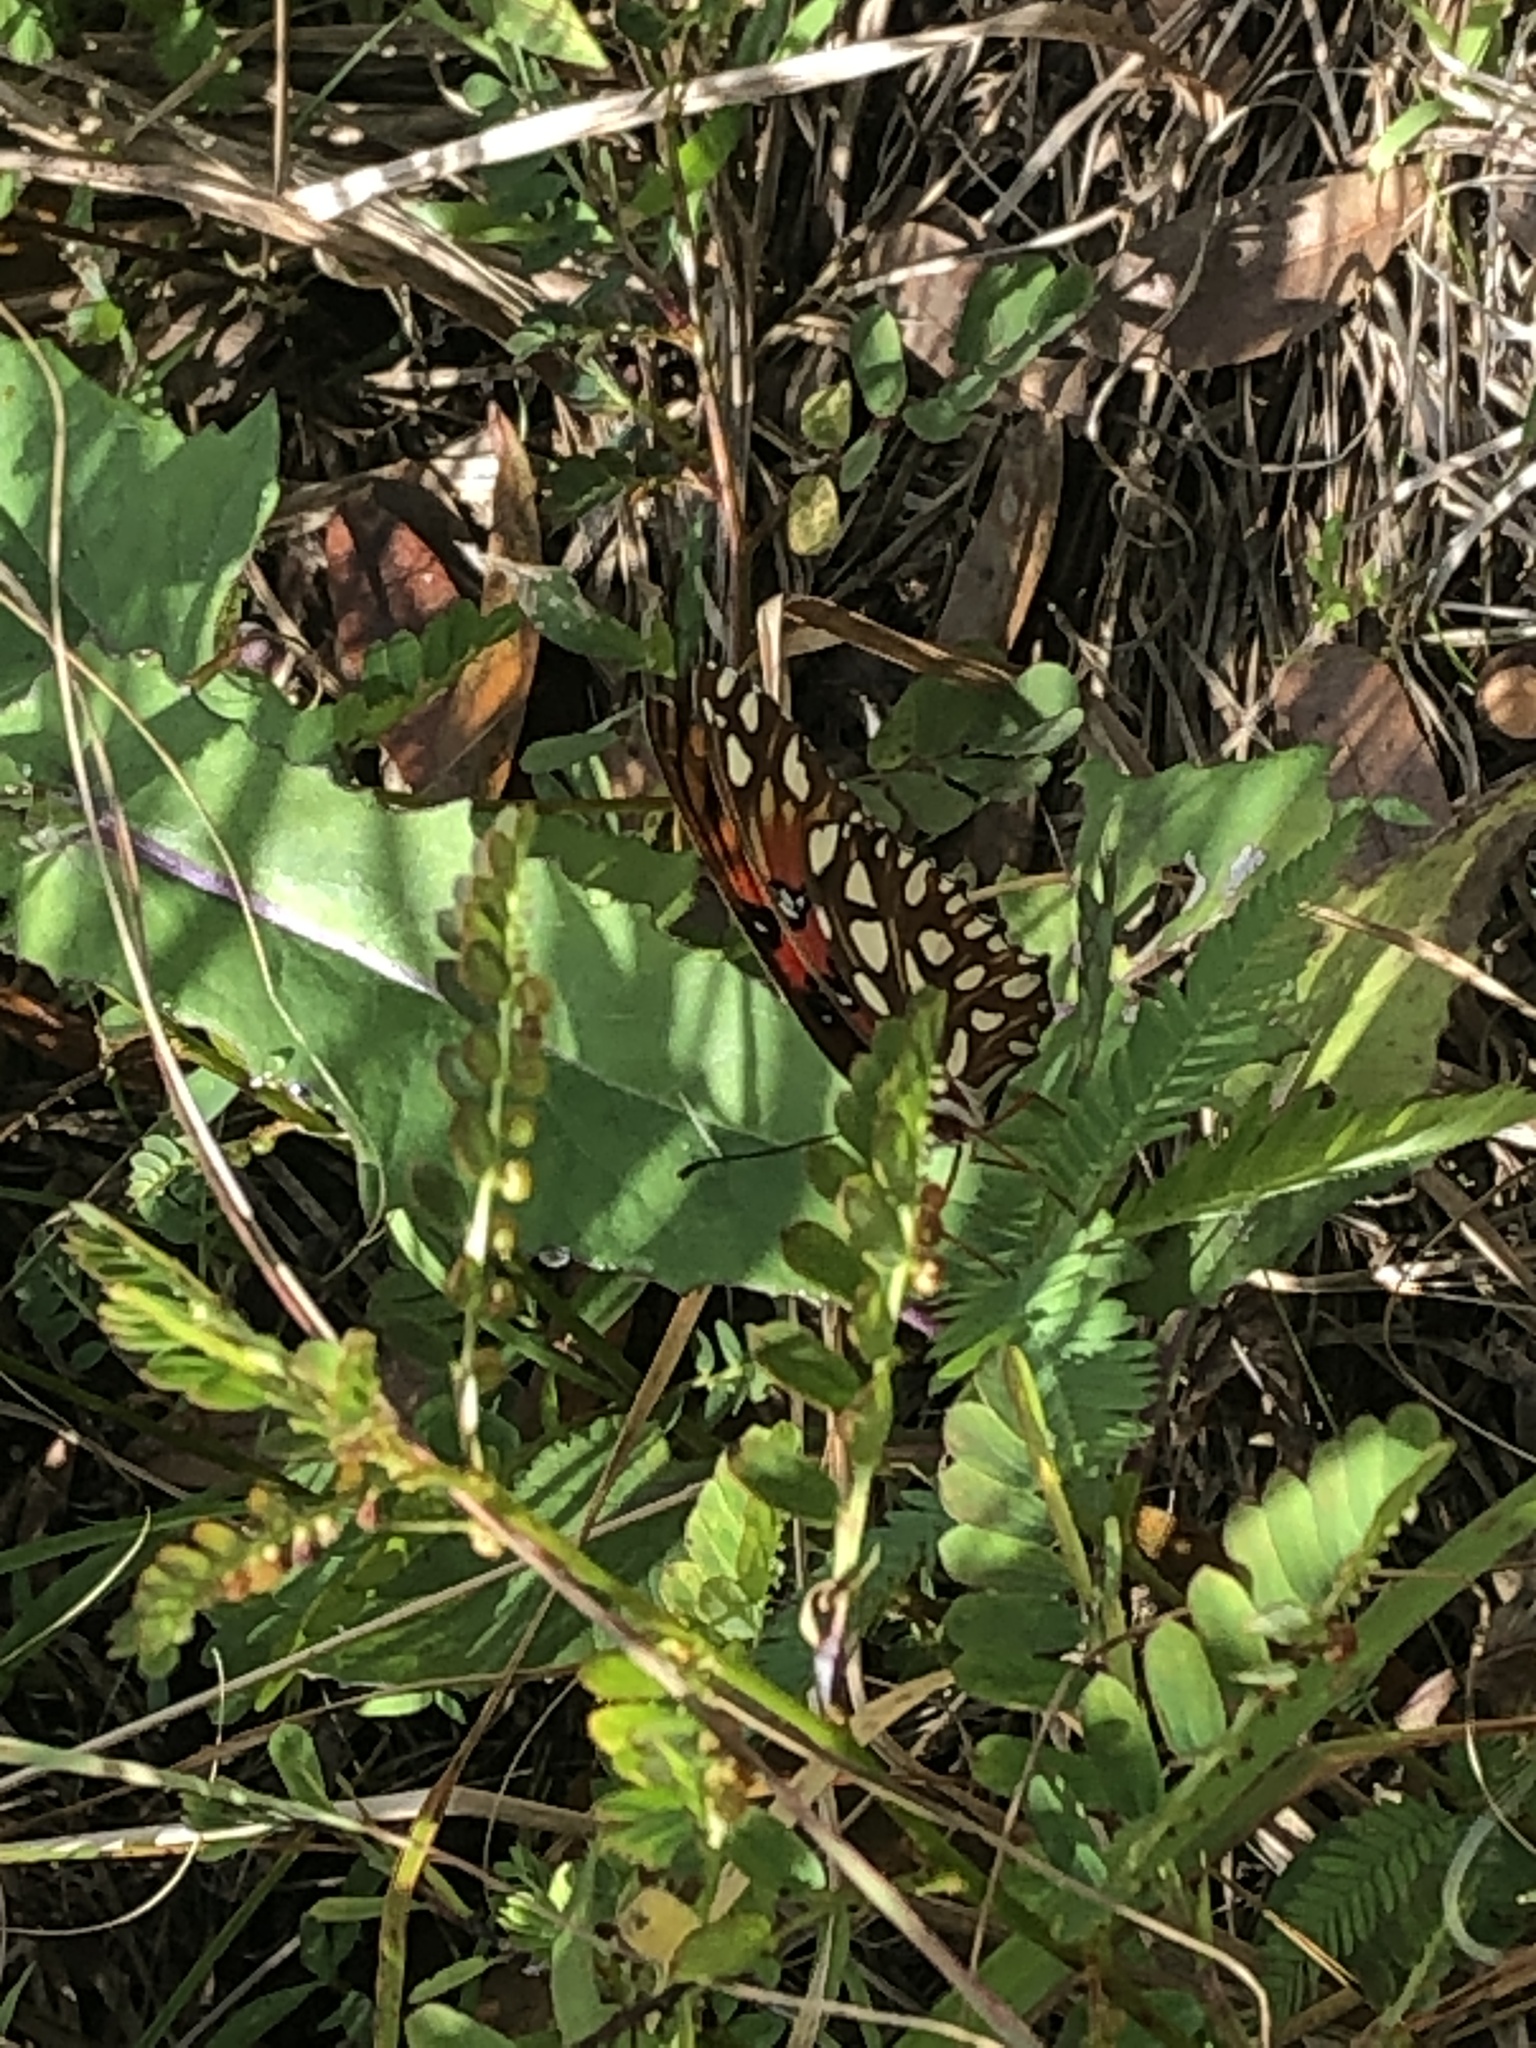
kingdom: Animalia
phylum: Arthropoda
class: Insecta
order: Lepidoptera
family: Nymphalidae
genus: Dione
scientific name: Dione vanillae
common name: Gulf fritillary
